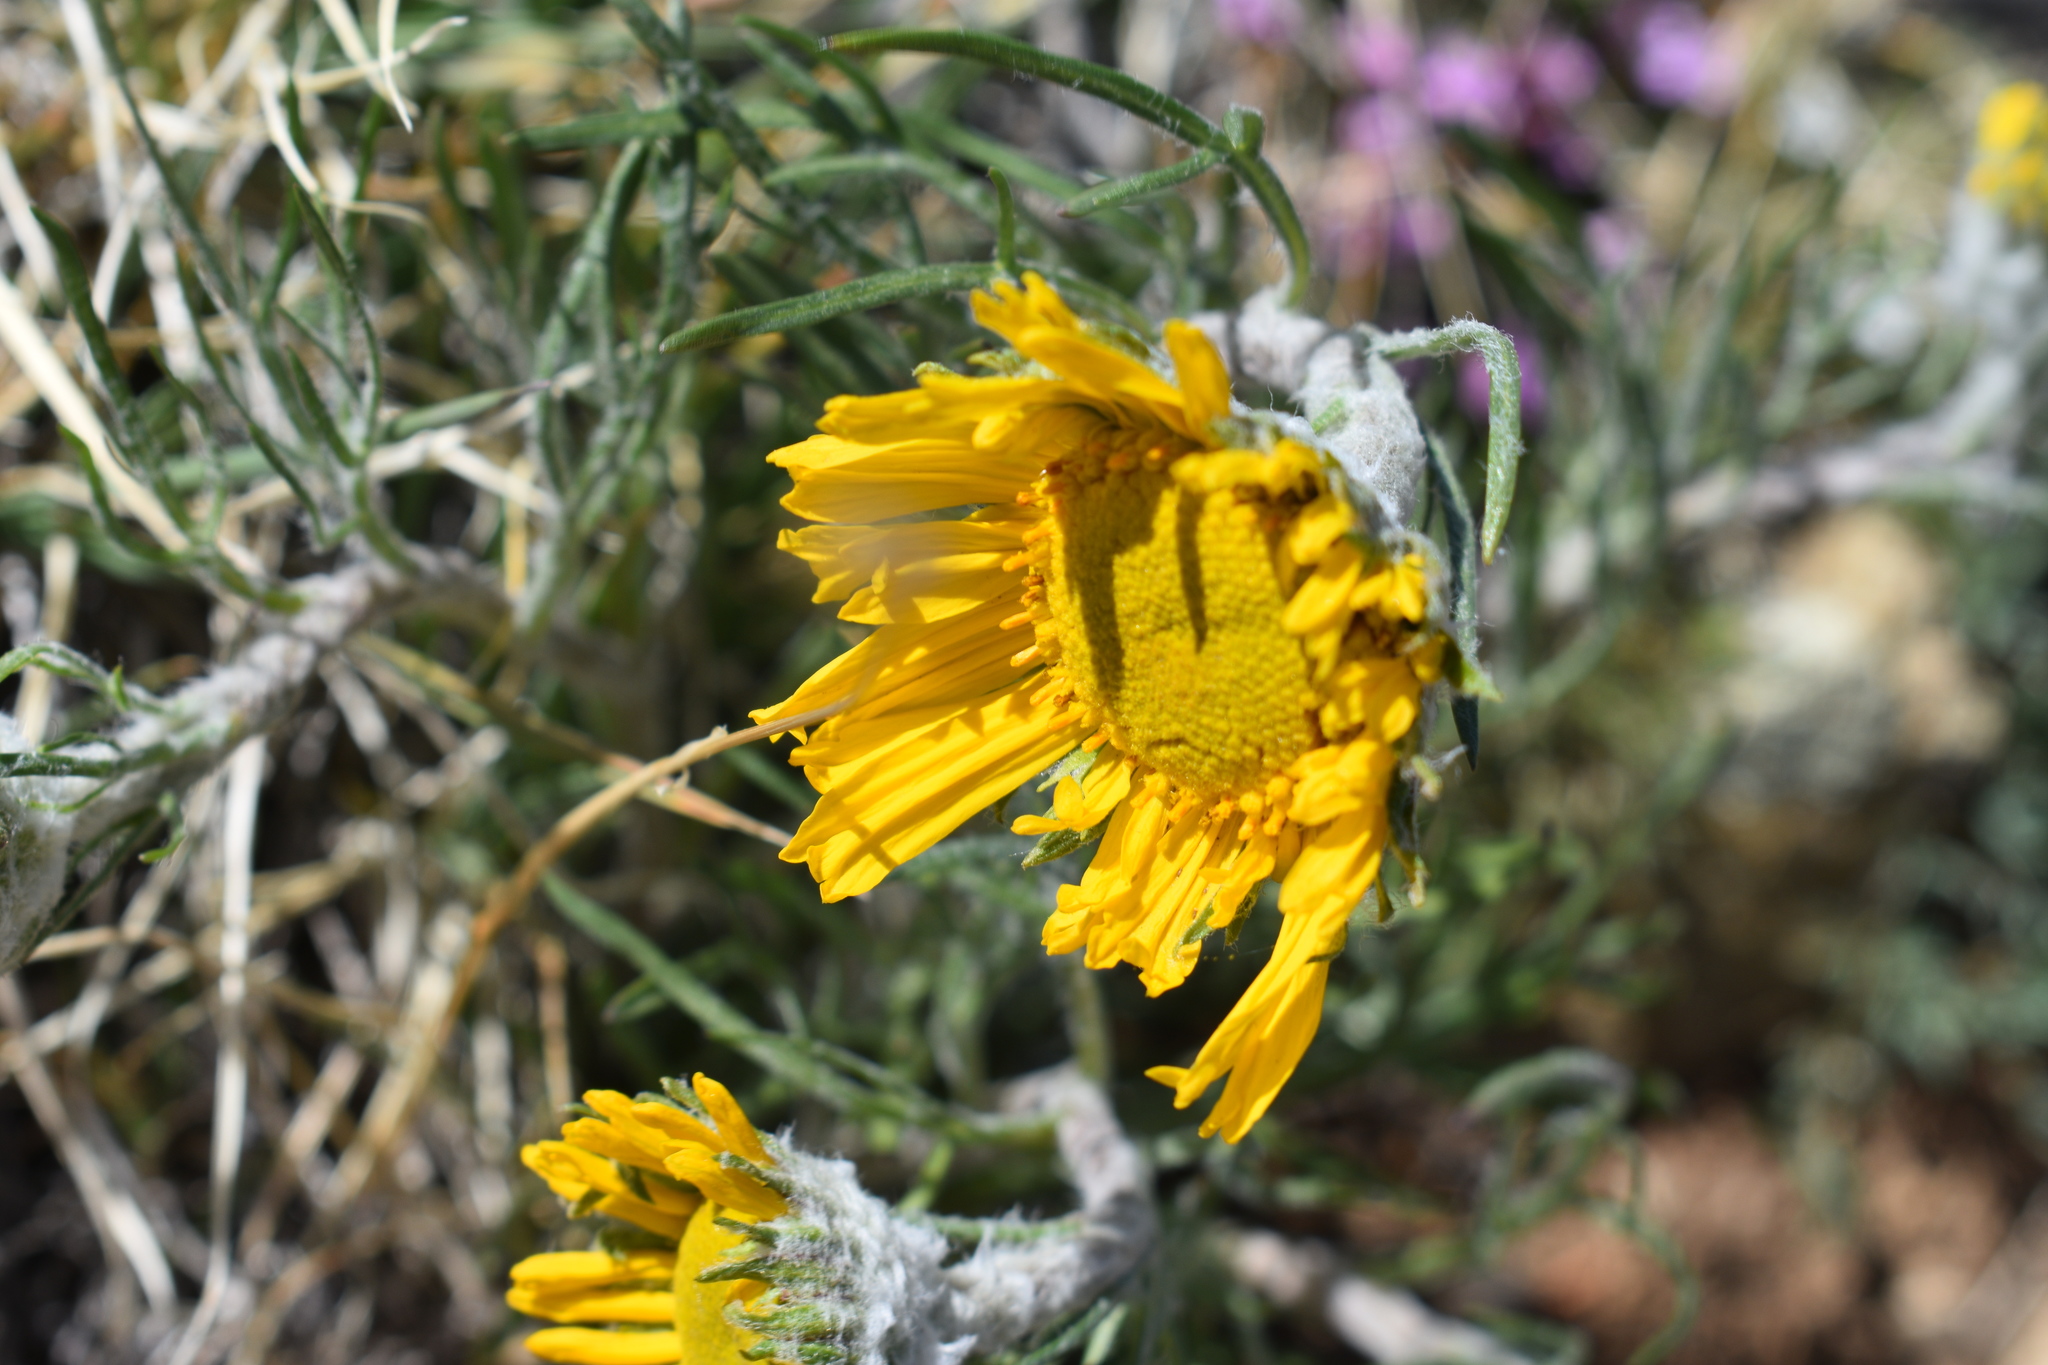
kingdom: Plantae
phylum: Tracheophyta
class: Magnoliopsida
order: Asterales
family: Asteraceae
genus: Hymenoxys
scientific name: Hymenoxys grandiflora
